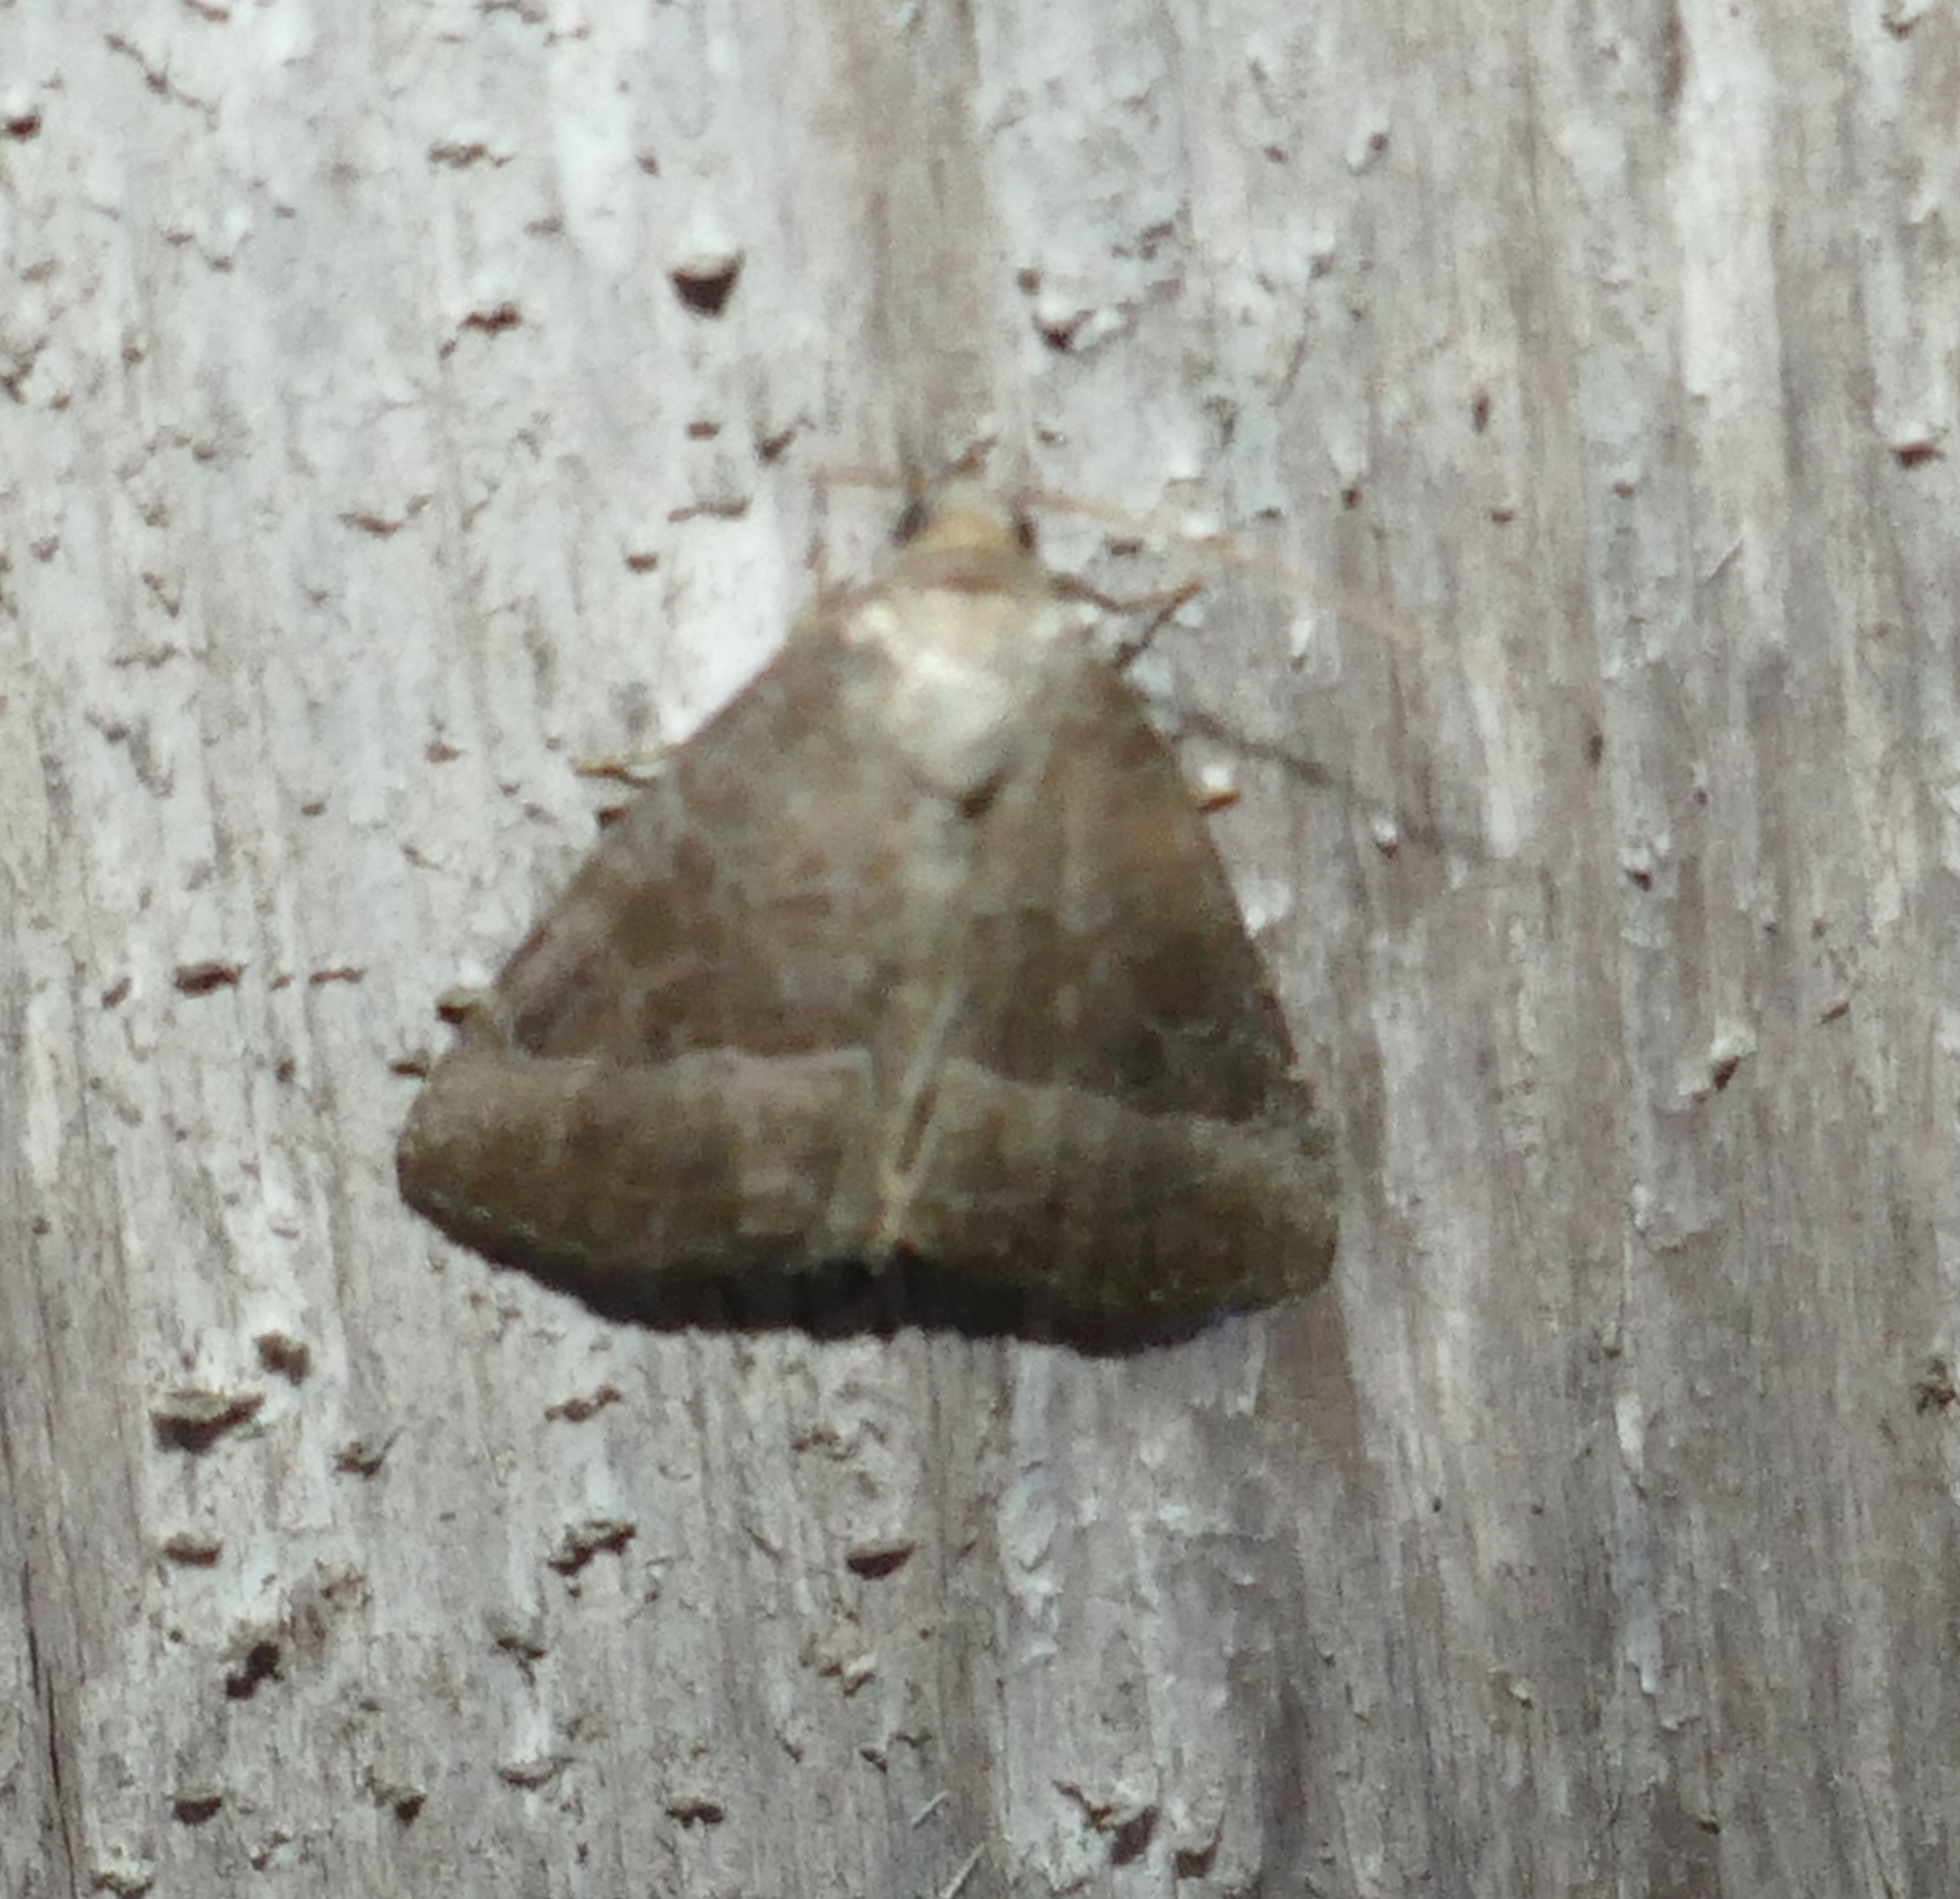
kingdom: Animalia
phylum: Arthropoda
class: Insecta
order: Lepidoptera
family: Noctuidae
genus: Ogdoconta
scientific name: Ogdoconta cinereola
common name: Common pinkband
